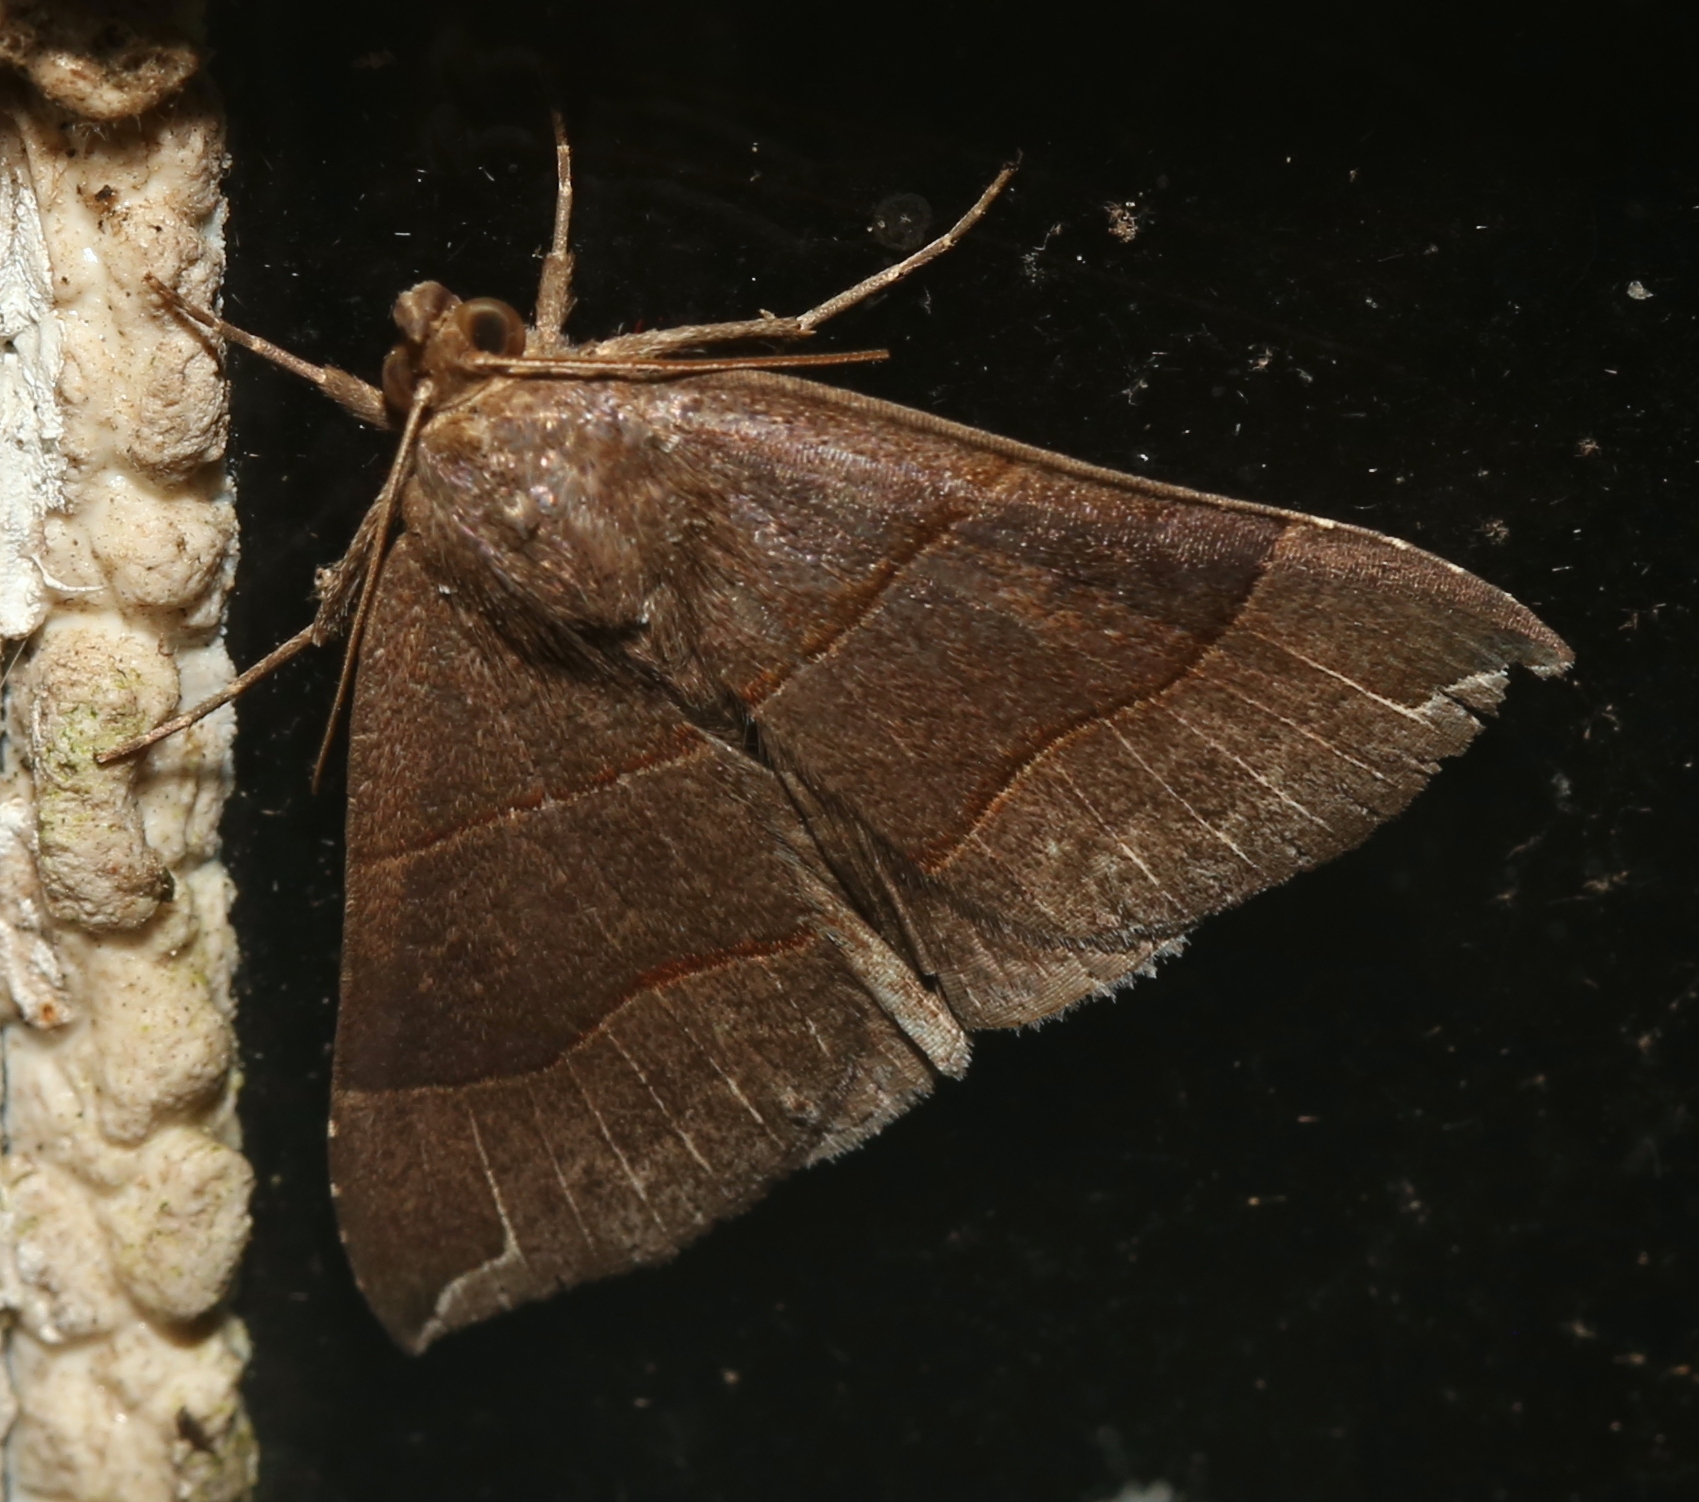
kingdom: Animalia
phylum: Arthropoda
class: Insecta
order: Lepidoptera
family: Erebidae
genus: Parallelia
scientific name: Parallelia bistriaris
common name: Maple looper moth
